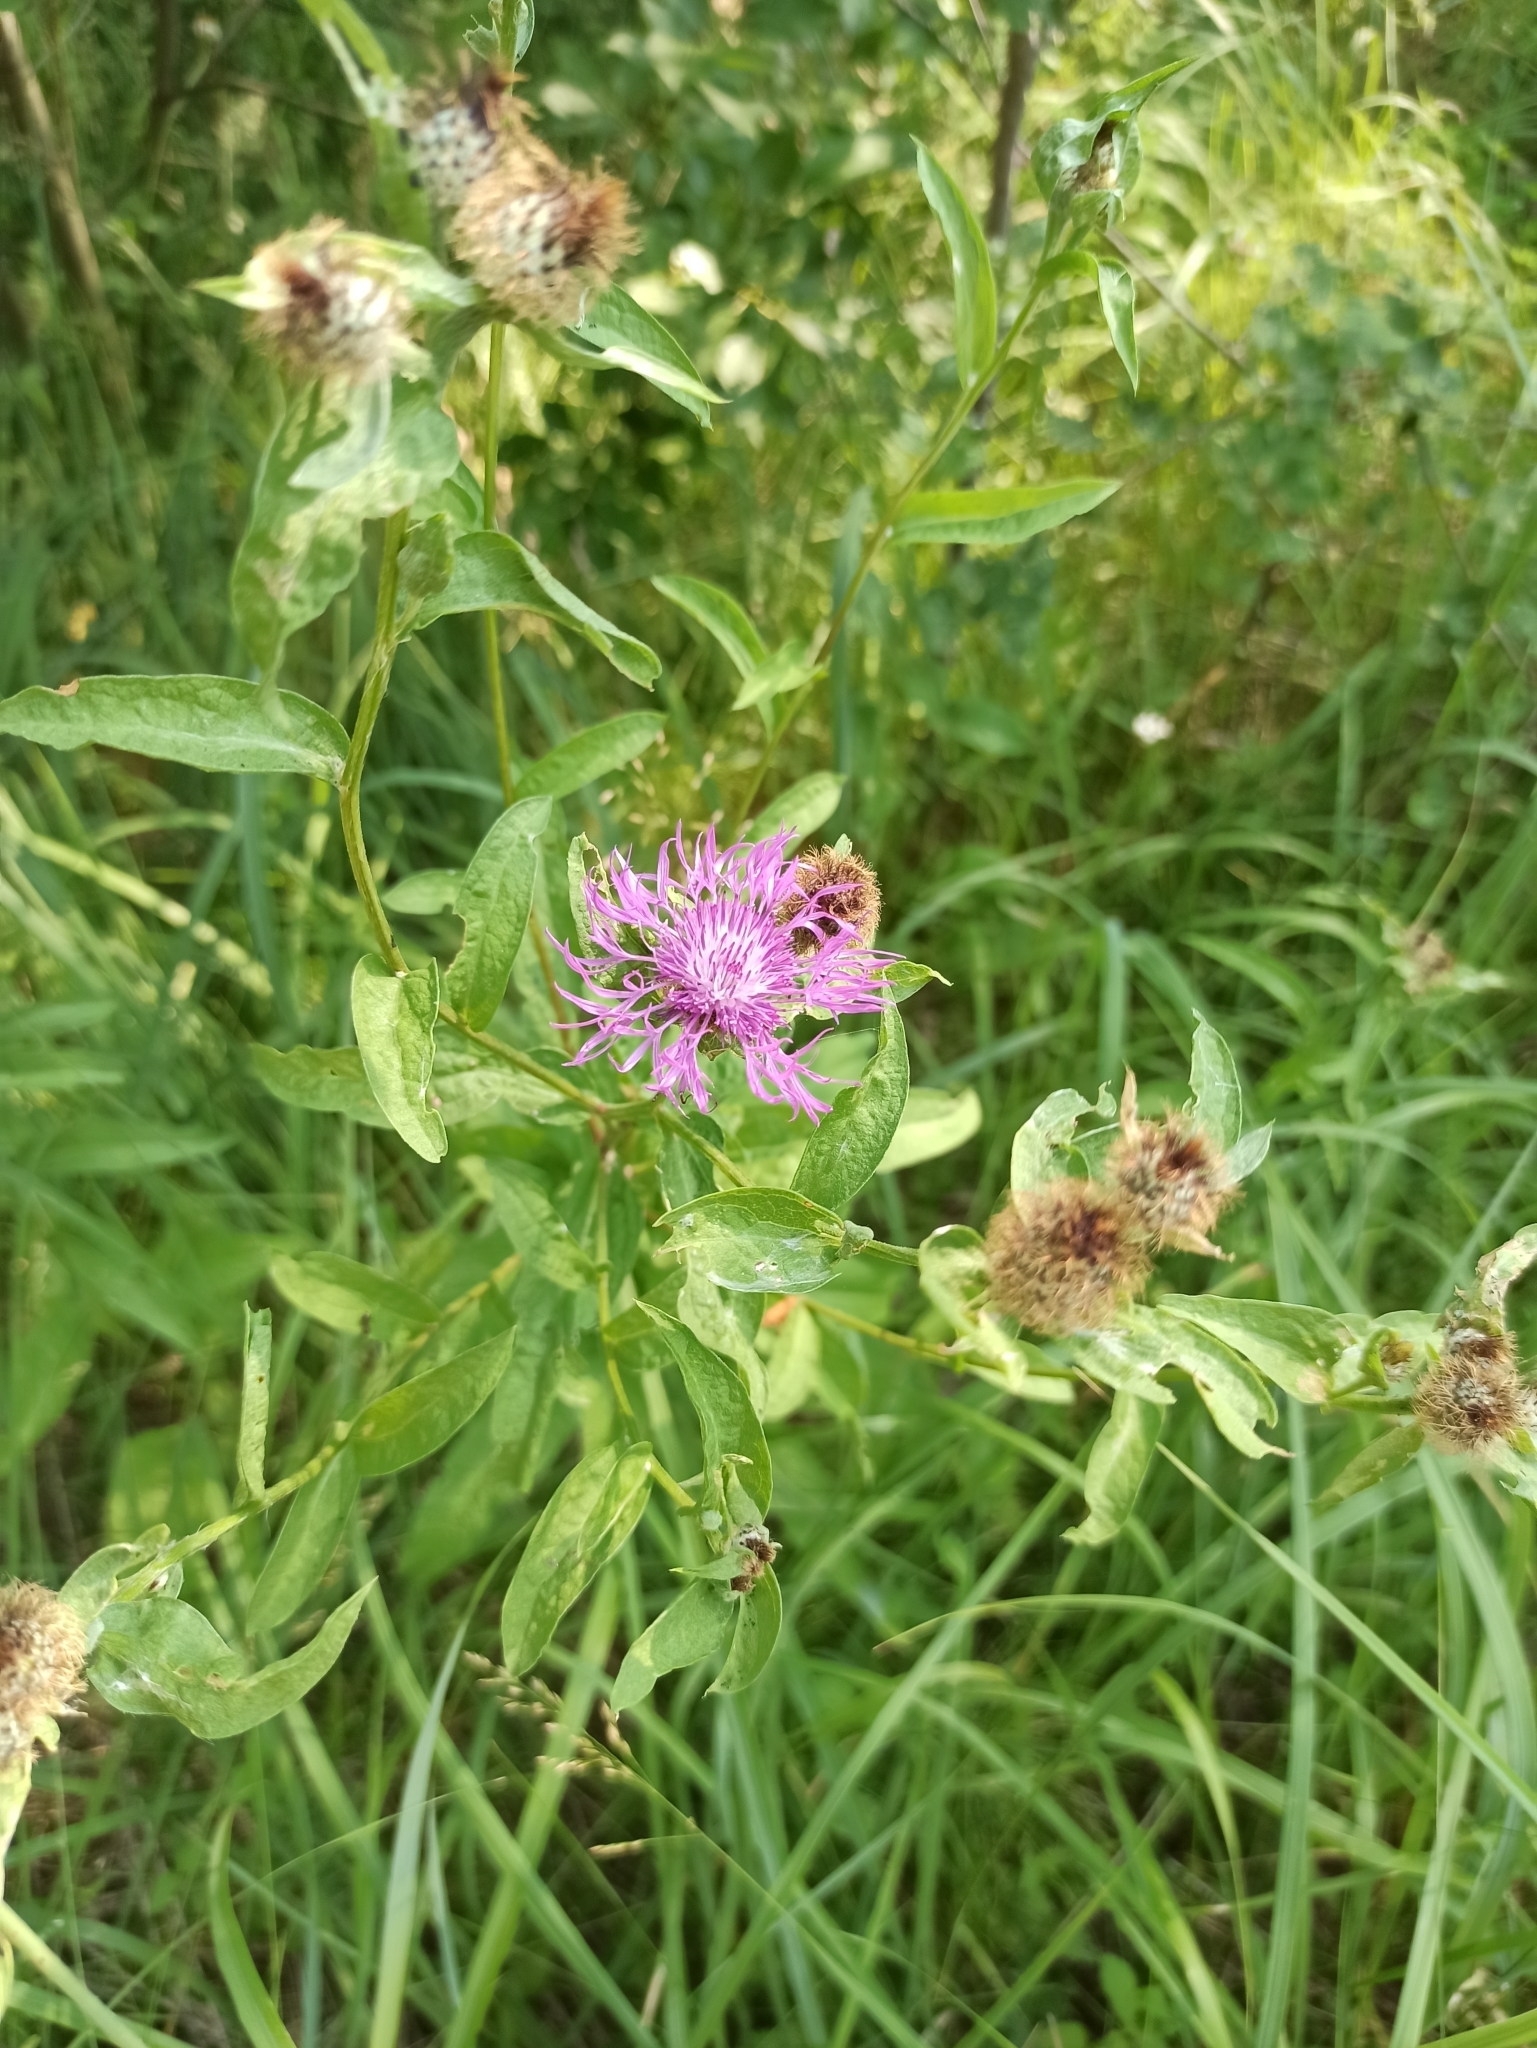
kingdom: Plantae
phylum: Tracheophyta
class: Magnoliopsida
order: Asterales
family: Asteraceae
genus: Centaurea
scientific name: Centaurea phrygia
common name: Wig knapweed
